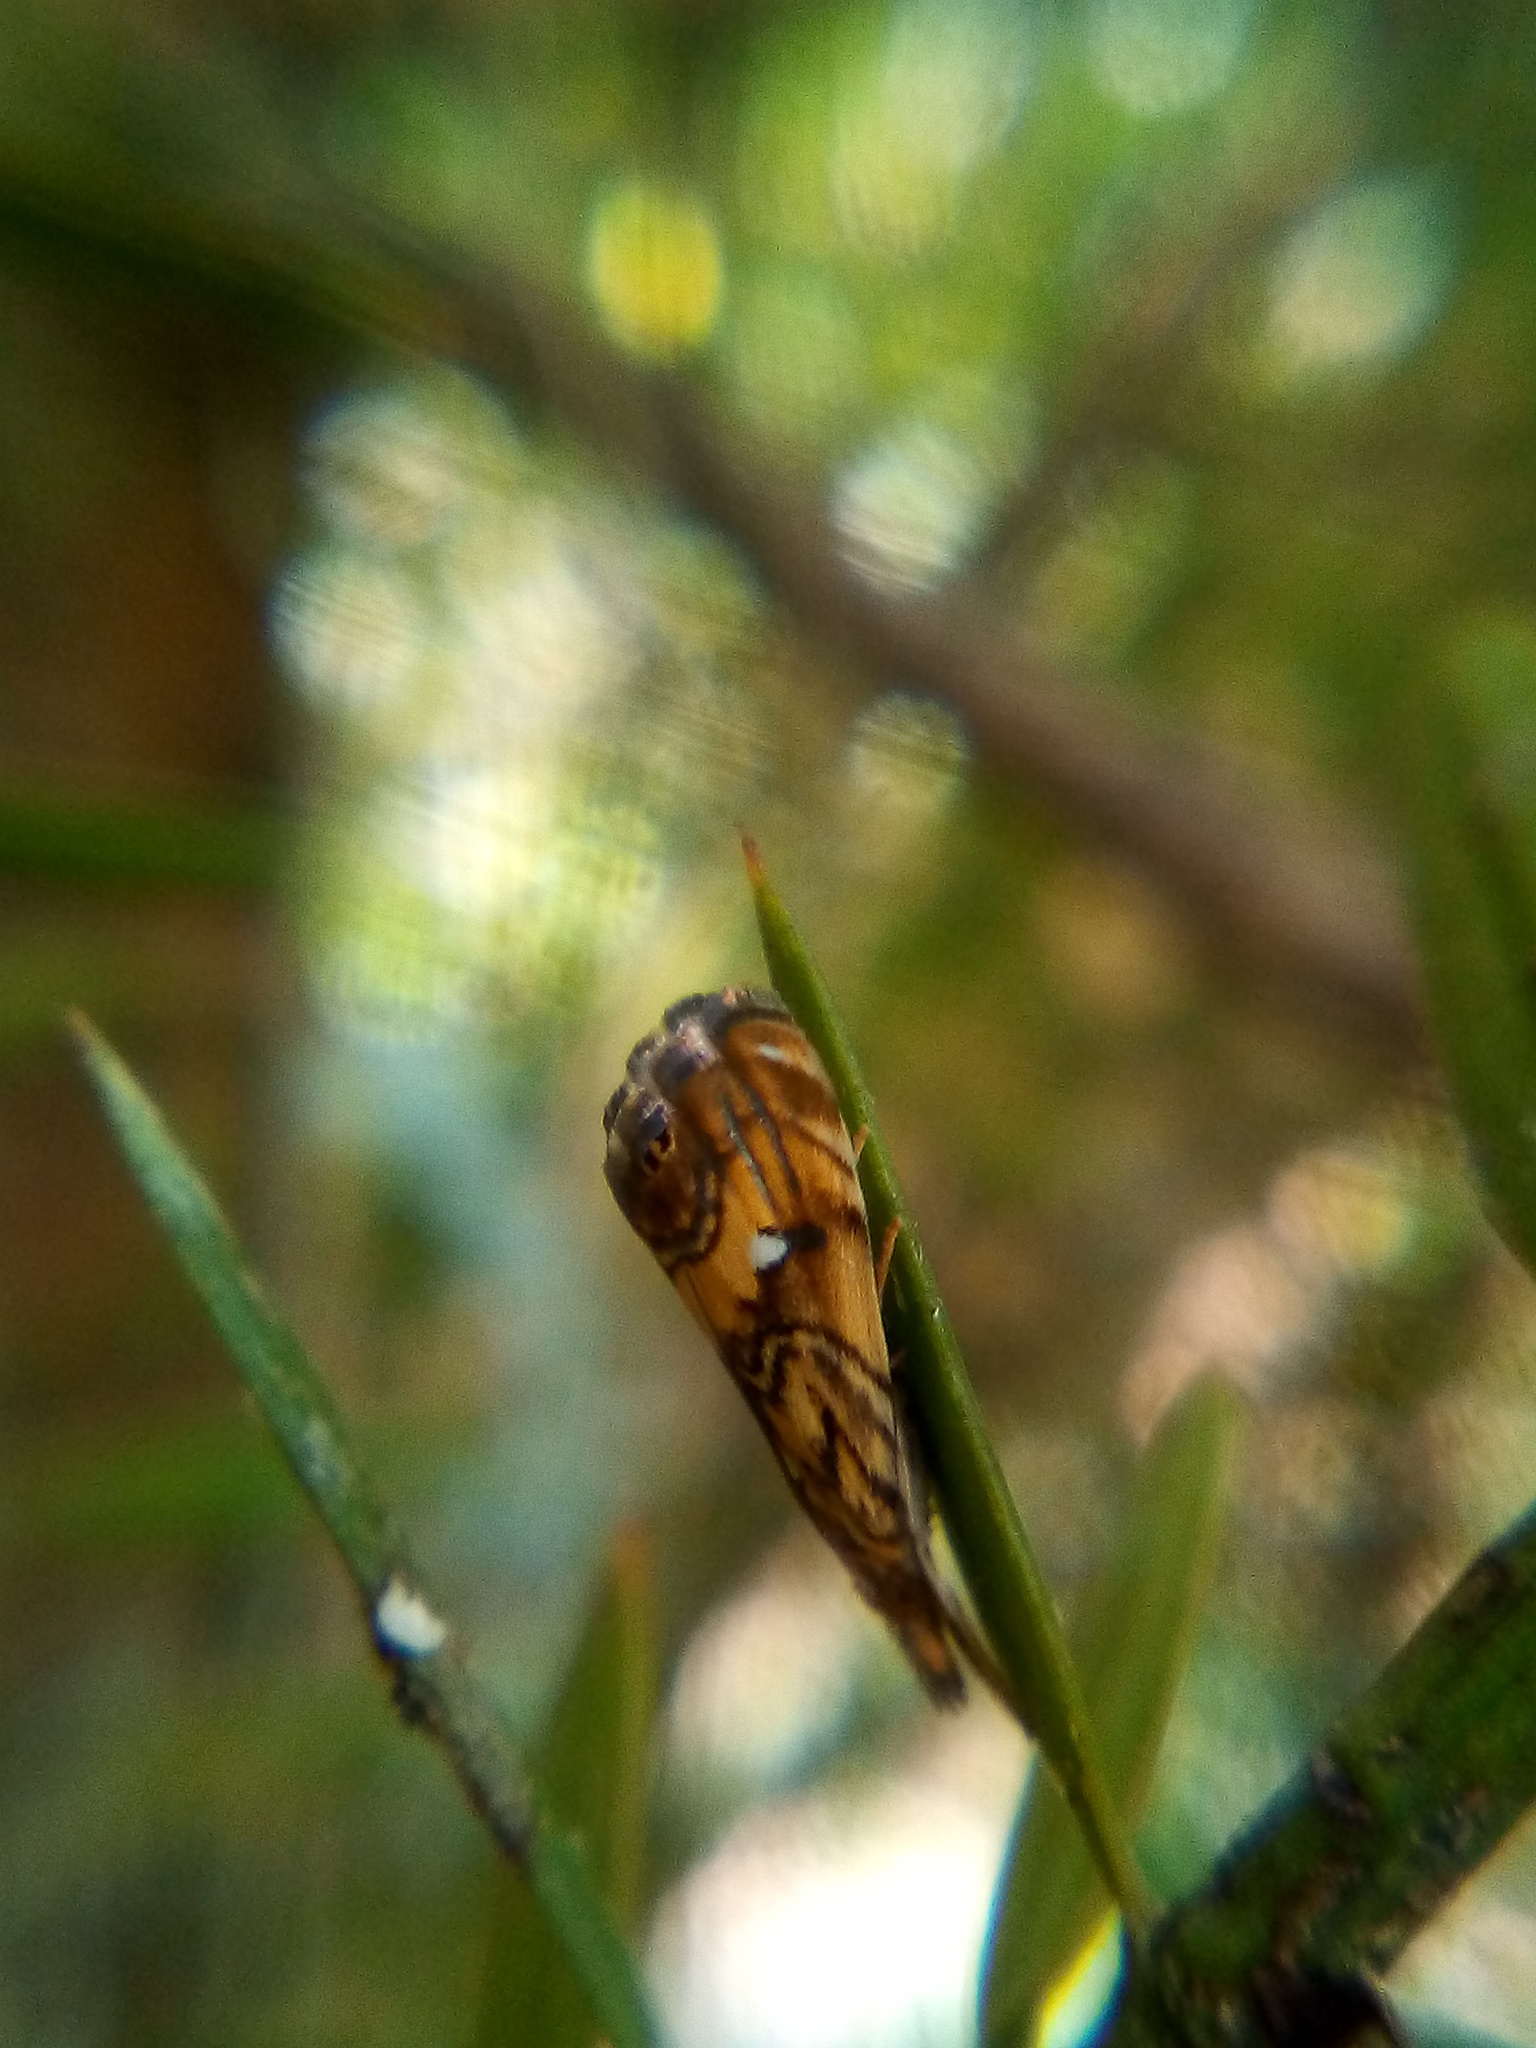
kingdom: Animalia
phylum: Arthropoda
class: Insecta
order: Lepidoptera
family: Crambidae
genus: Glaucocharis
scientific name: Glaucocharis chrysochyta
